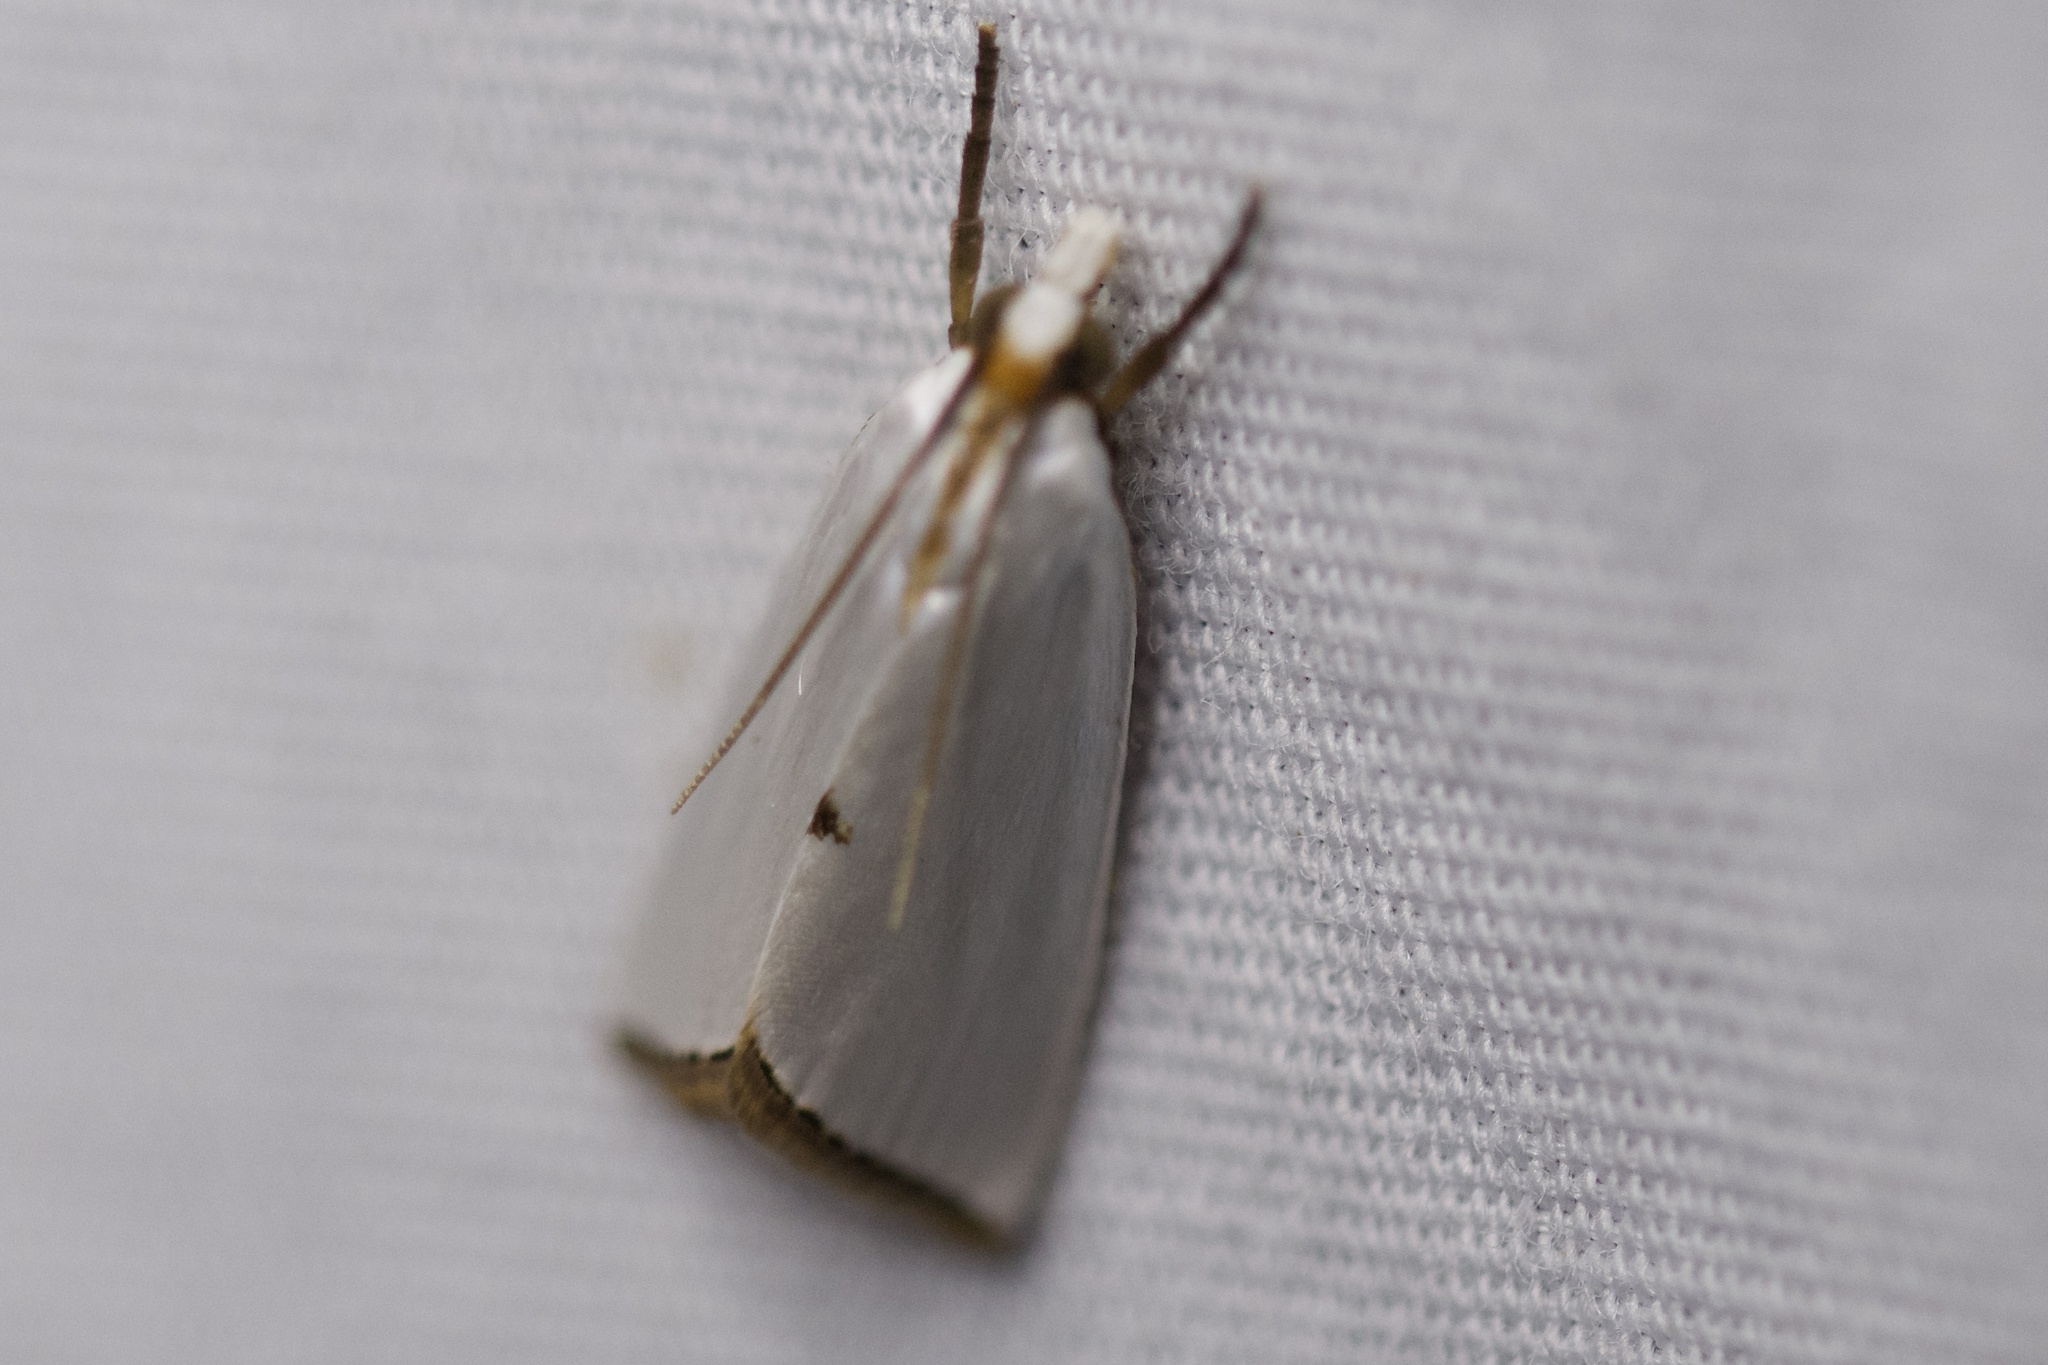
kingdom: Animalia
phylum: Arthropoda
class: Insecta
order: Lepidoptera
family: Crambidae
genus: Argyria
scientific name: Argyria nivalis
